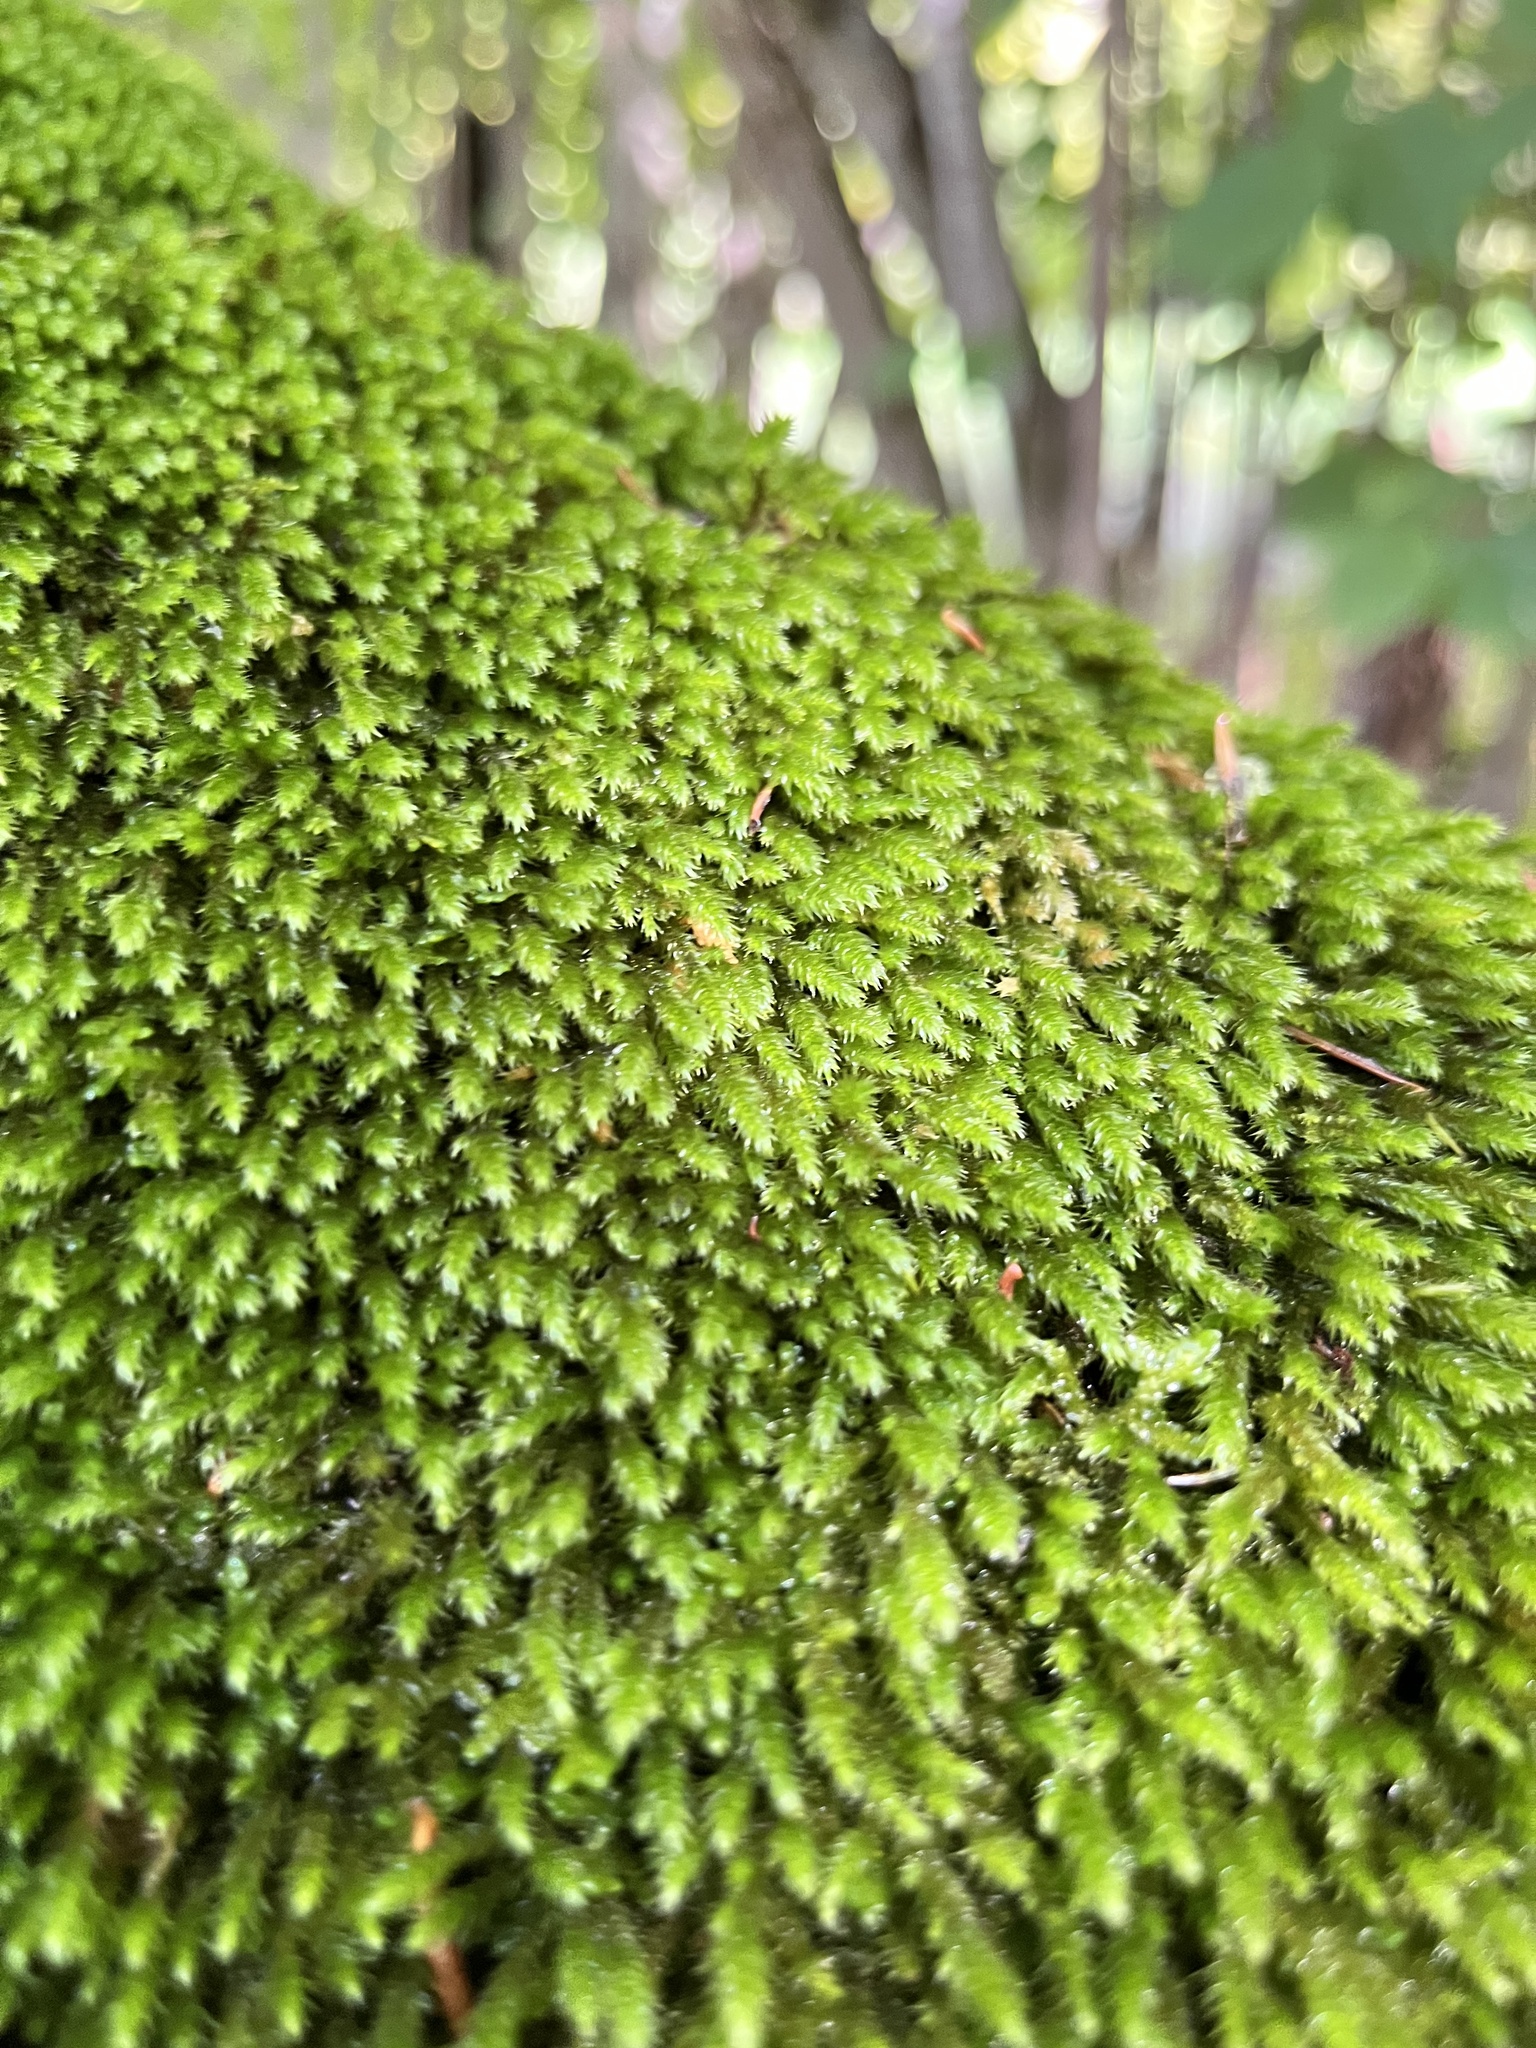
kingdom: Plantae
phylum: Bryophyta
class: Bryopsida
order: Hypnales
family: Leucodontaceae
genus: Leucodon
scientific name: Leucodon sciuroides
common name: Squirrel-tail moss
